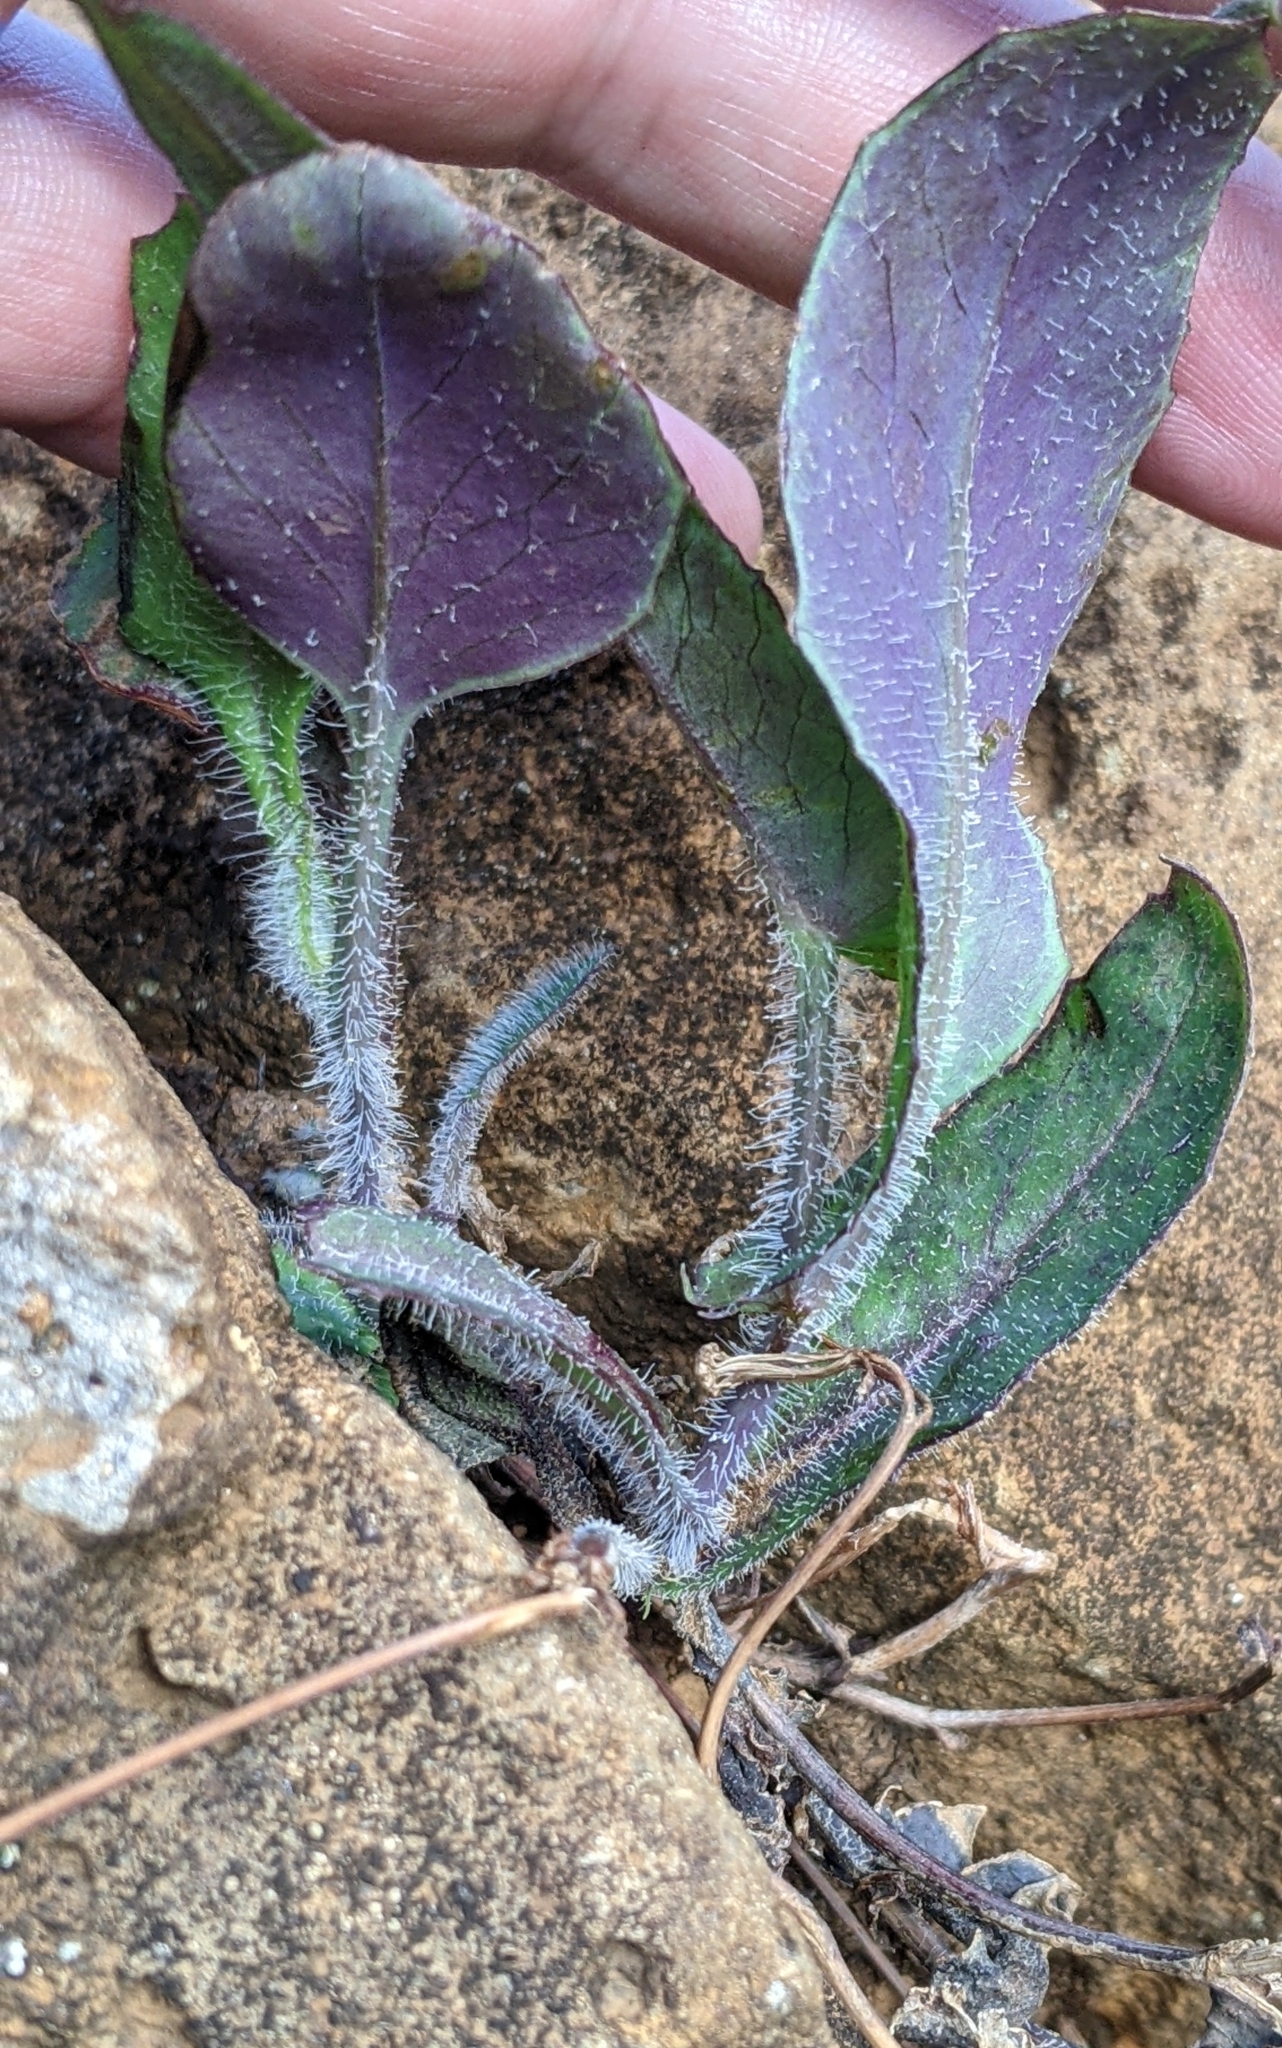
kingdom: Plantae
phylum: Tracheophyta
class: Magnoliopsida
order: Asterales
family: Asteraceae
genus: Emilia
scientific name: Emilia fosbergii
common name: Florida tasselflower
